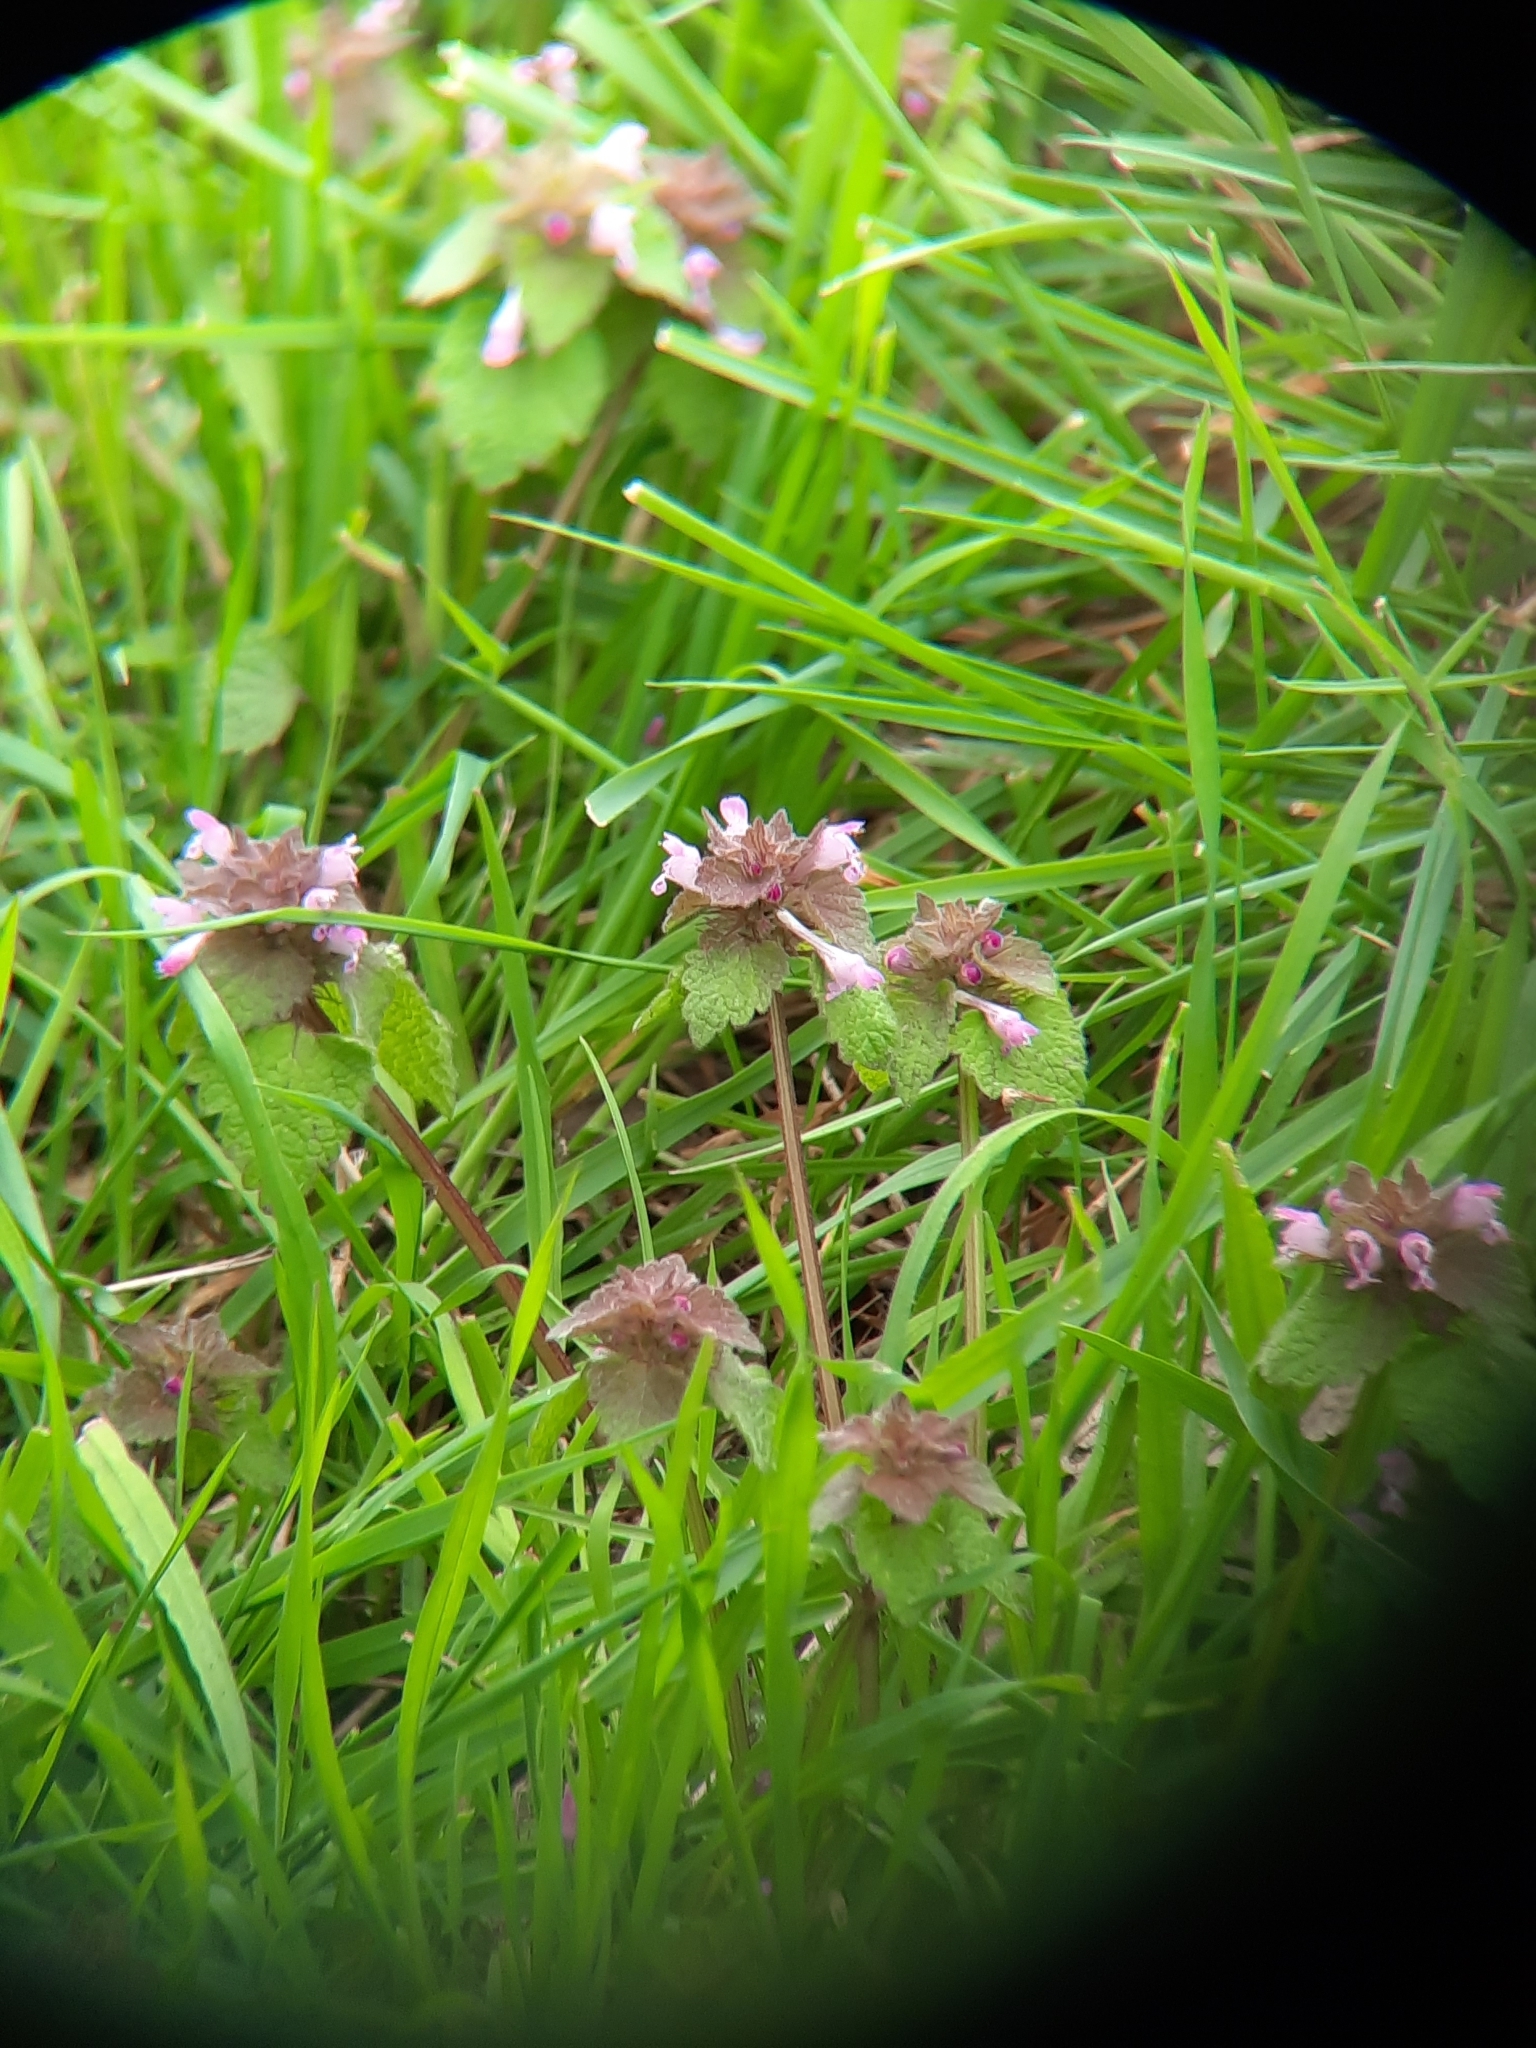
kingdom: Plantae
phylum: Tracheophyta
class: Magnoliopsida
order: Lamiales
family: Lamiaceae
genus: Lamium
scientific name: Lamium purpureum
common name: Red dead-nettle
